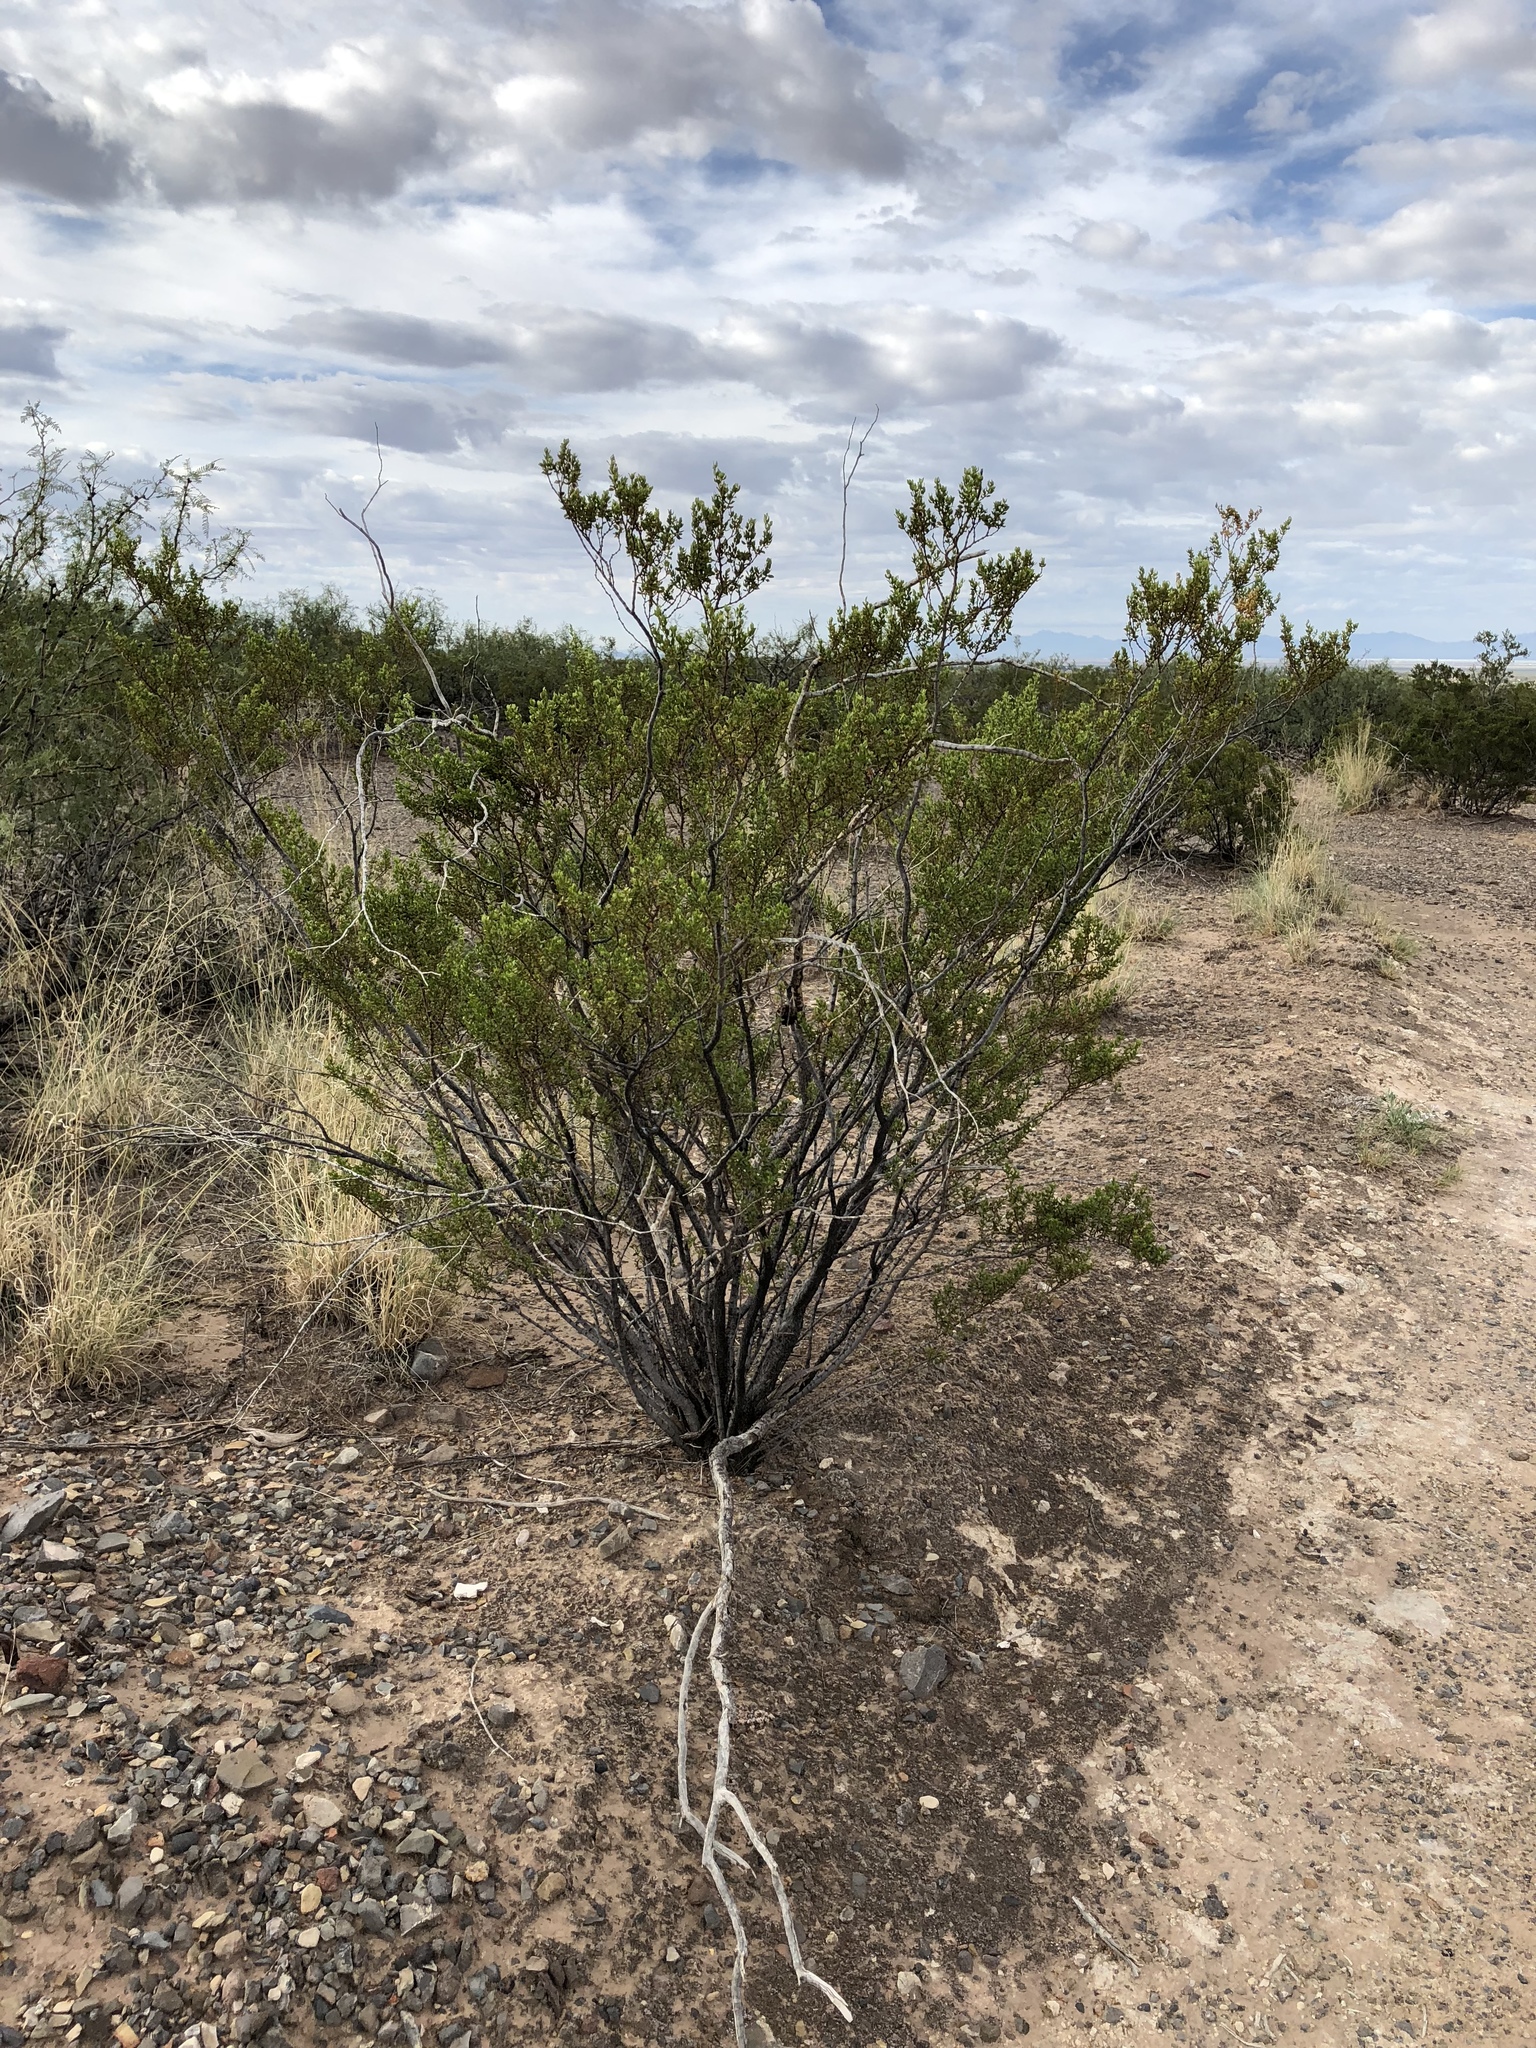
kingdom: Plantae
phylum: Tracheophyta
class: Magnoliopsida
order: Zygophyllales
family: Zygophyllaceae
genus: Larrea
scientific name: Larrea tridentata
